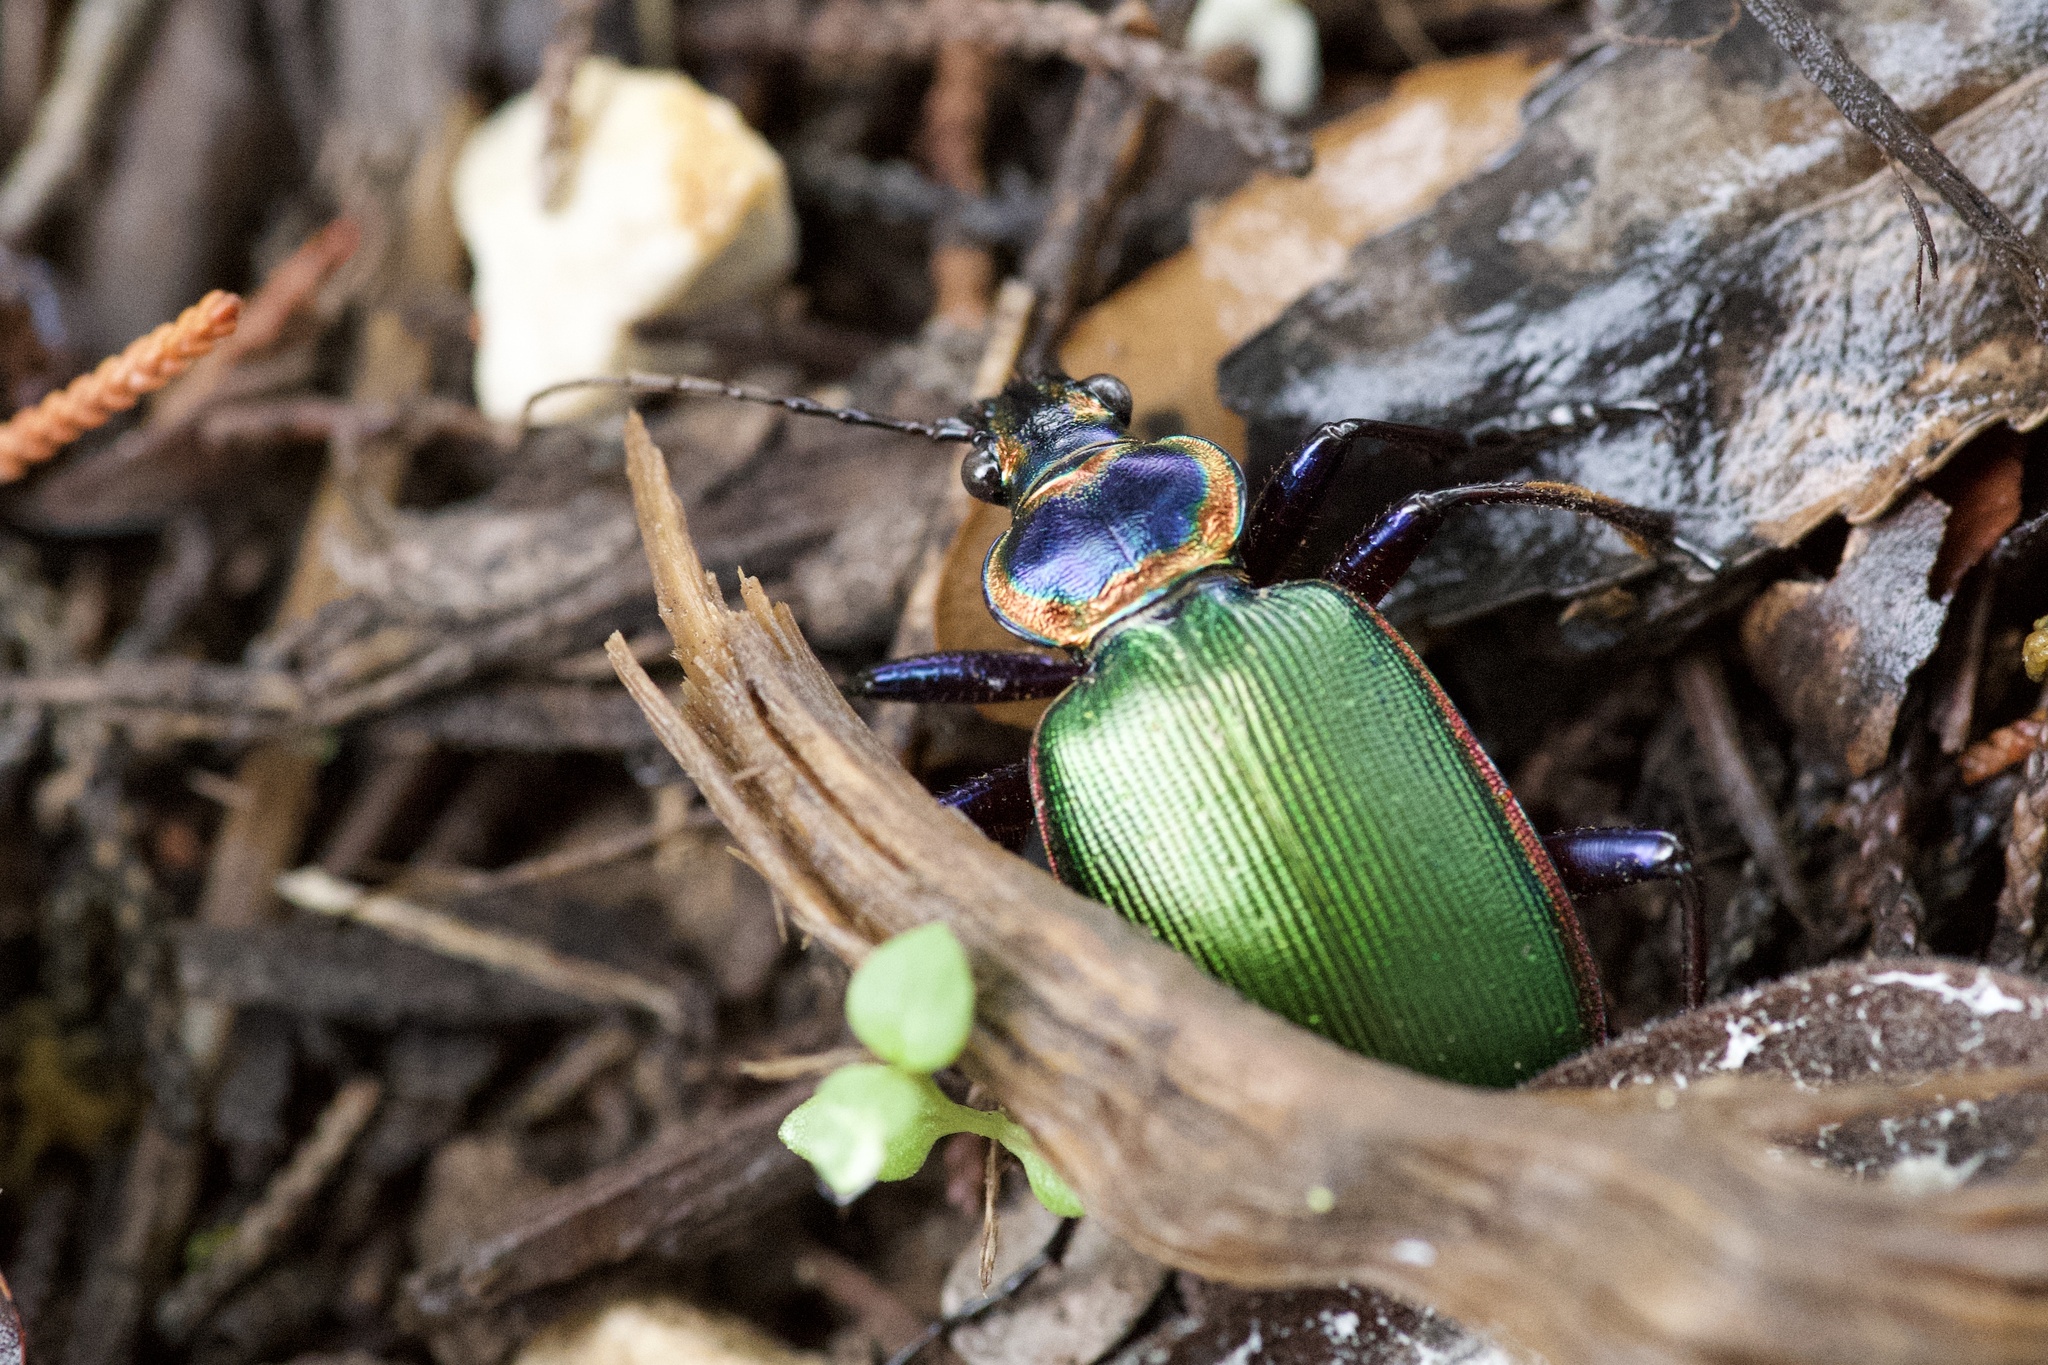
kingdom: Animalia
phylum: Arthropoda
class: Insecta
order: Coleoptera
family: Carabidae
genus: Calosoma
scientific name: Calosoma scrutator
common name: Fiery searcher beetle
